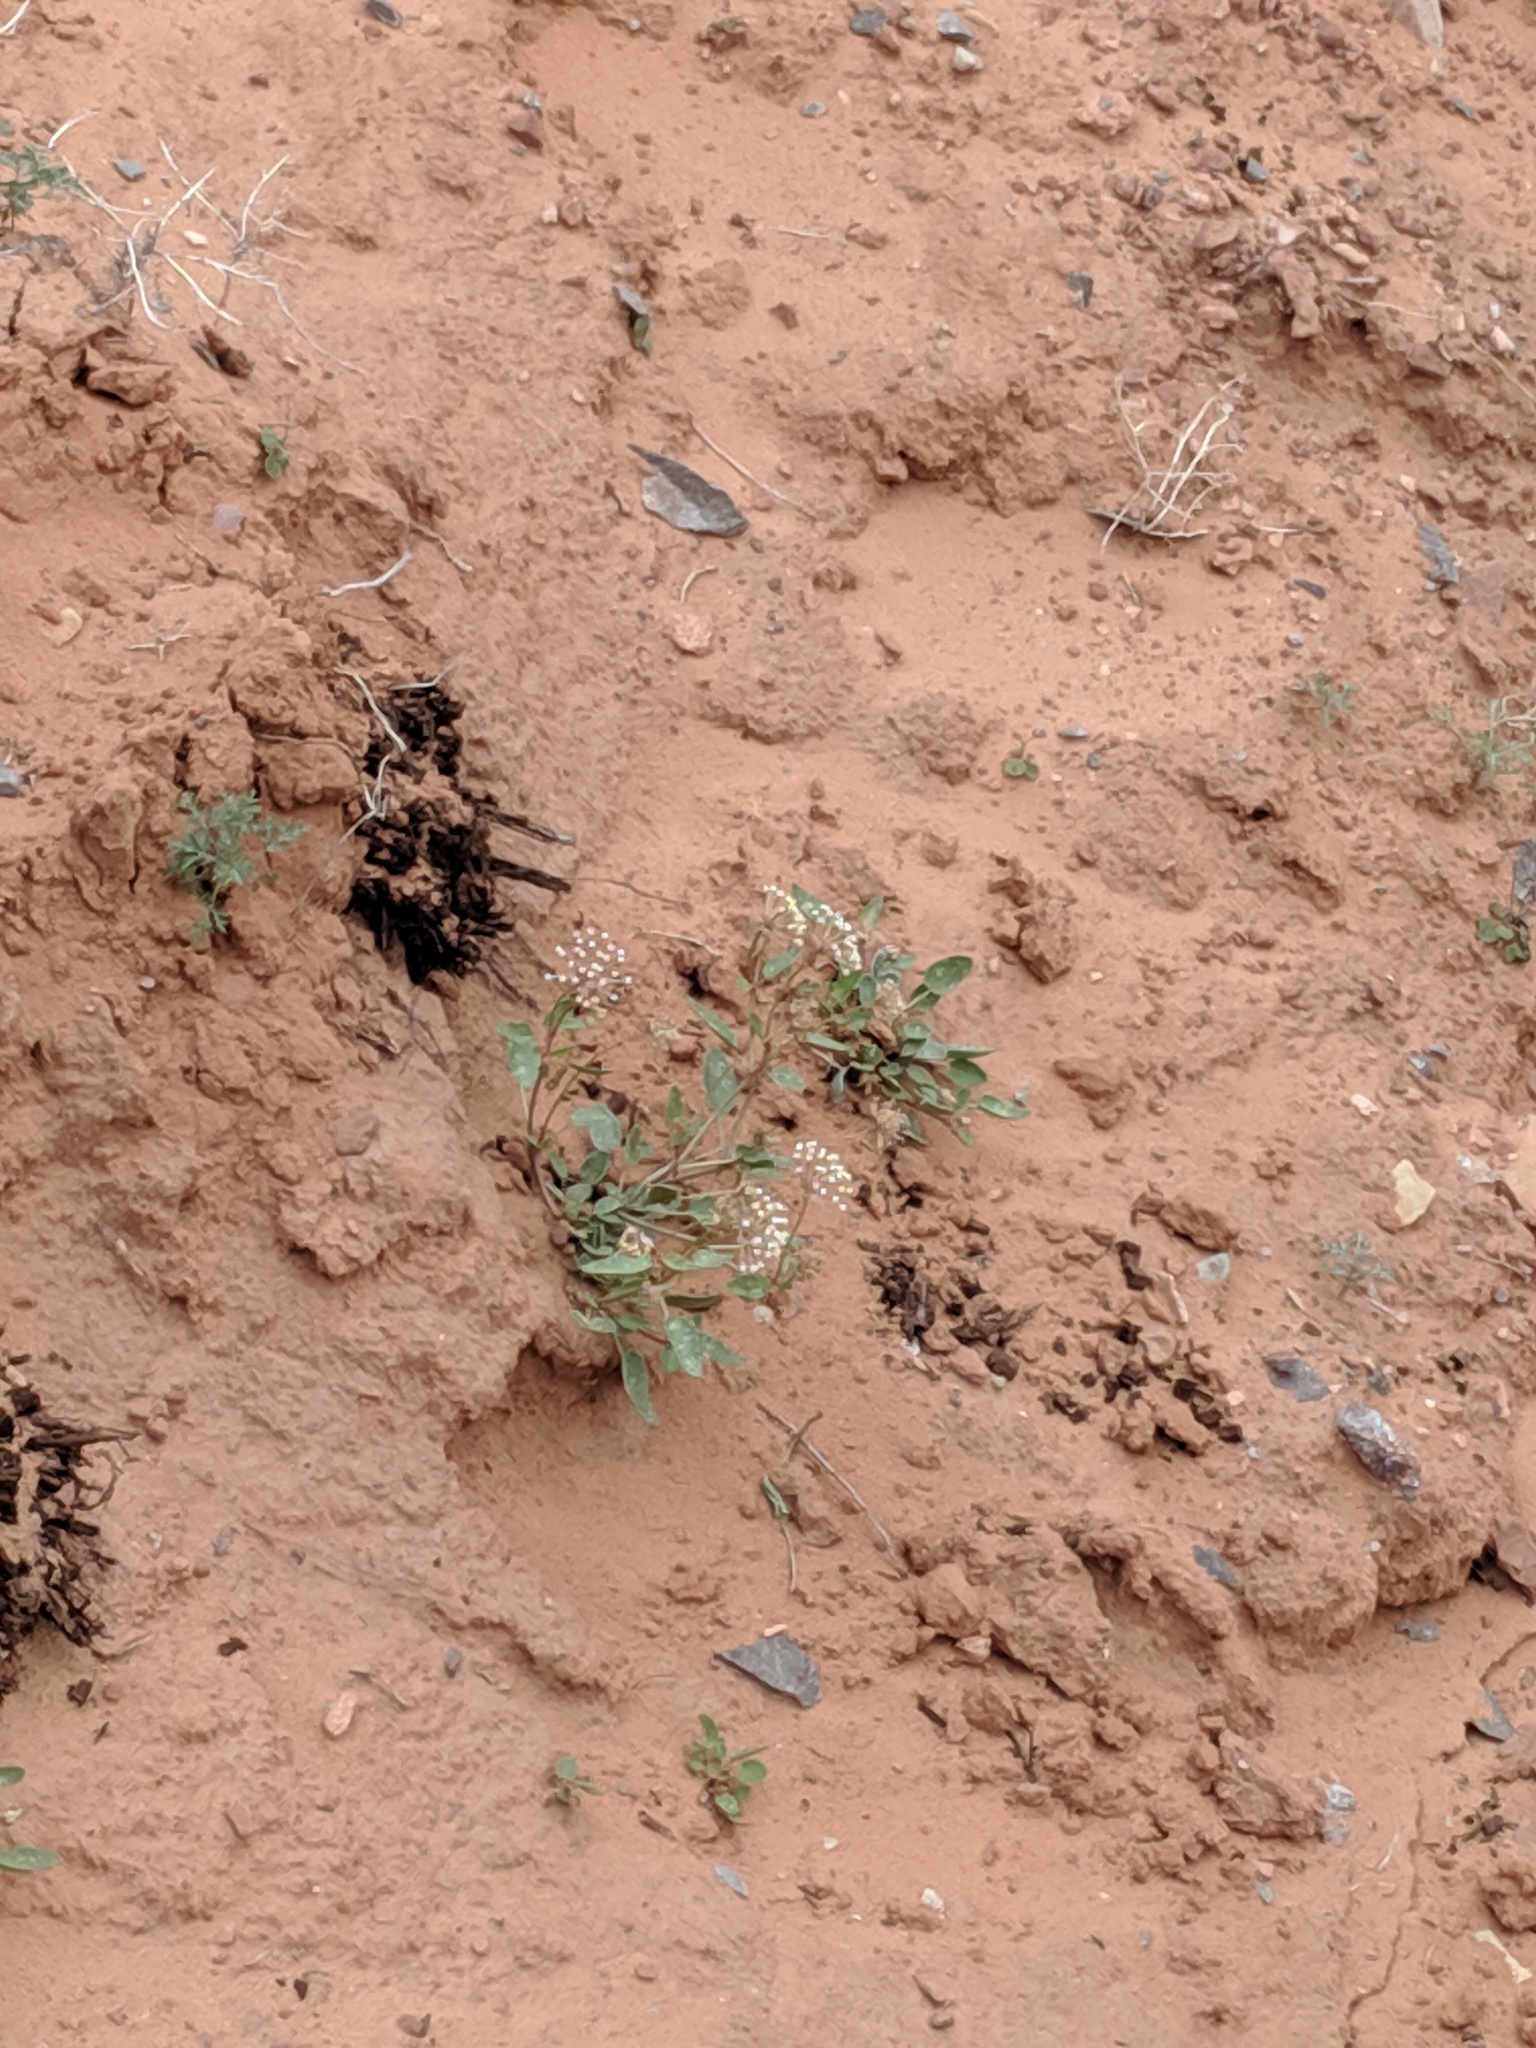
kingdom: Plantae
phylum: Tracheophyta
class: Magnoliopsida
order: Caryophyllales
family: Nyctaginaceae
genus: Abronia
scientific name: Abronia elliptica
